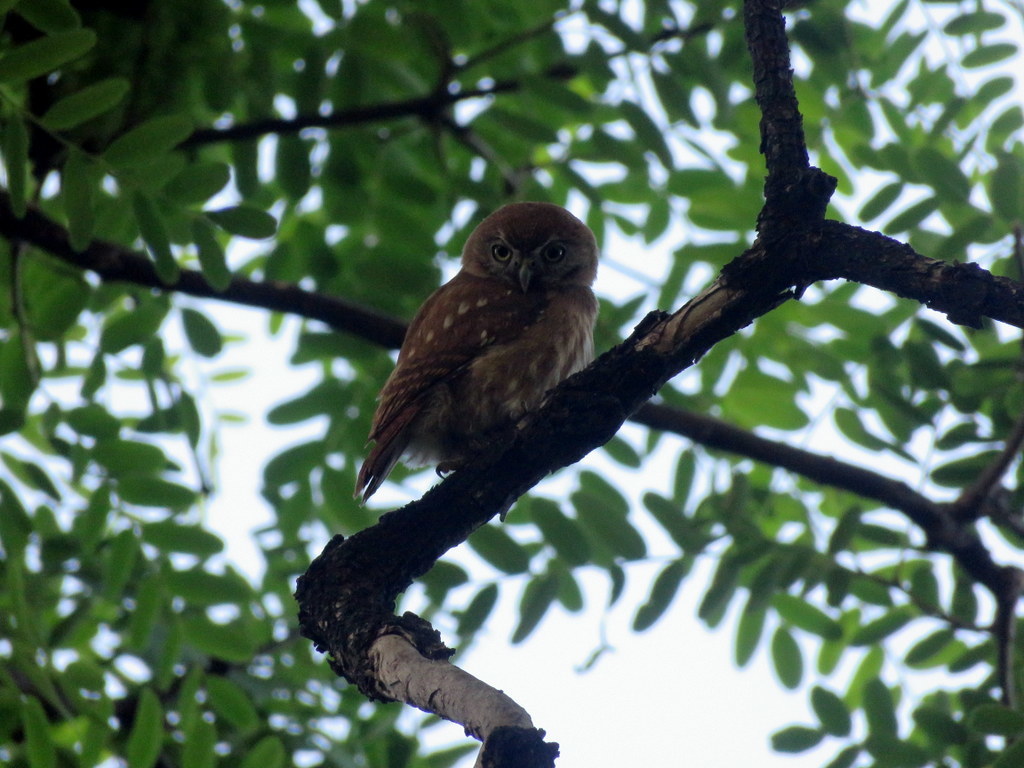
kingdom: Animalia
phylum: Chordata
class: Aves
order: Strigiformes
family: Strigidae
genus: Glaucidium
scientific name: Glaucidium brasilianum
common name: Ferruginous pygmy-owl
